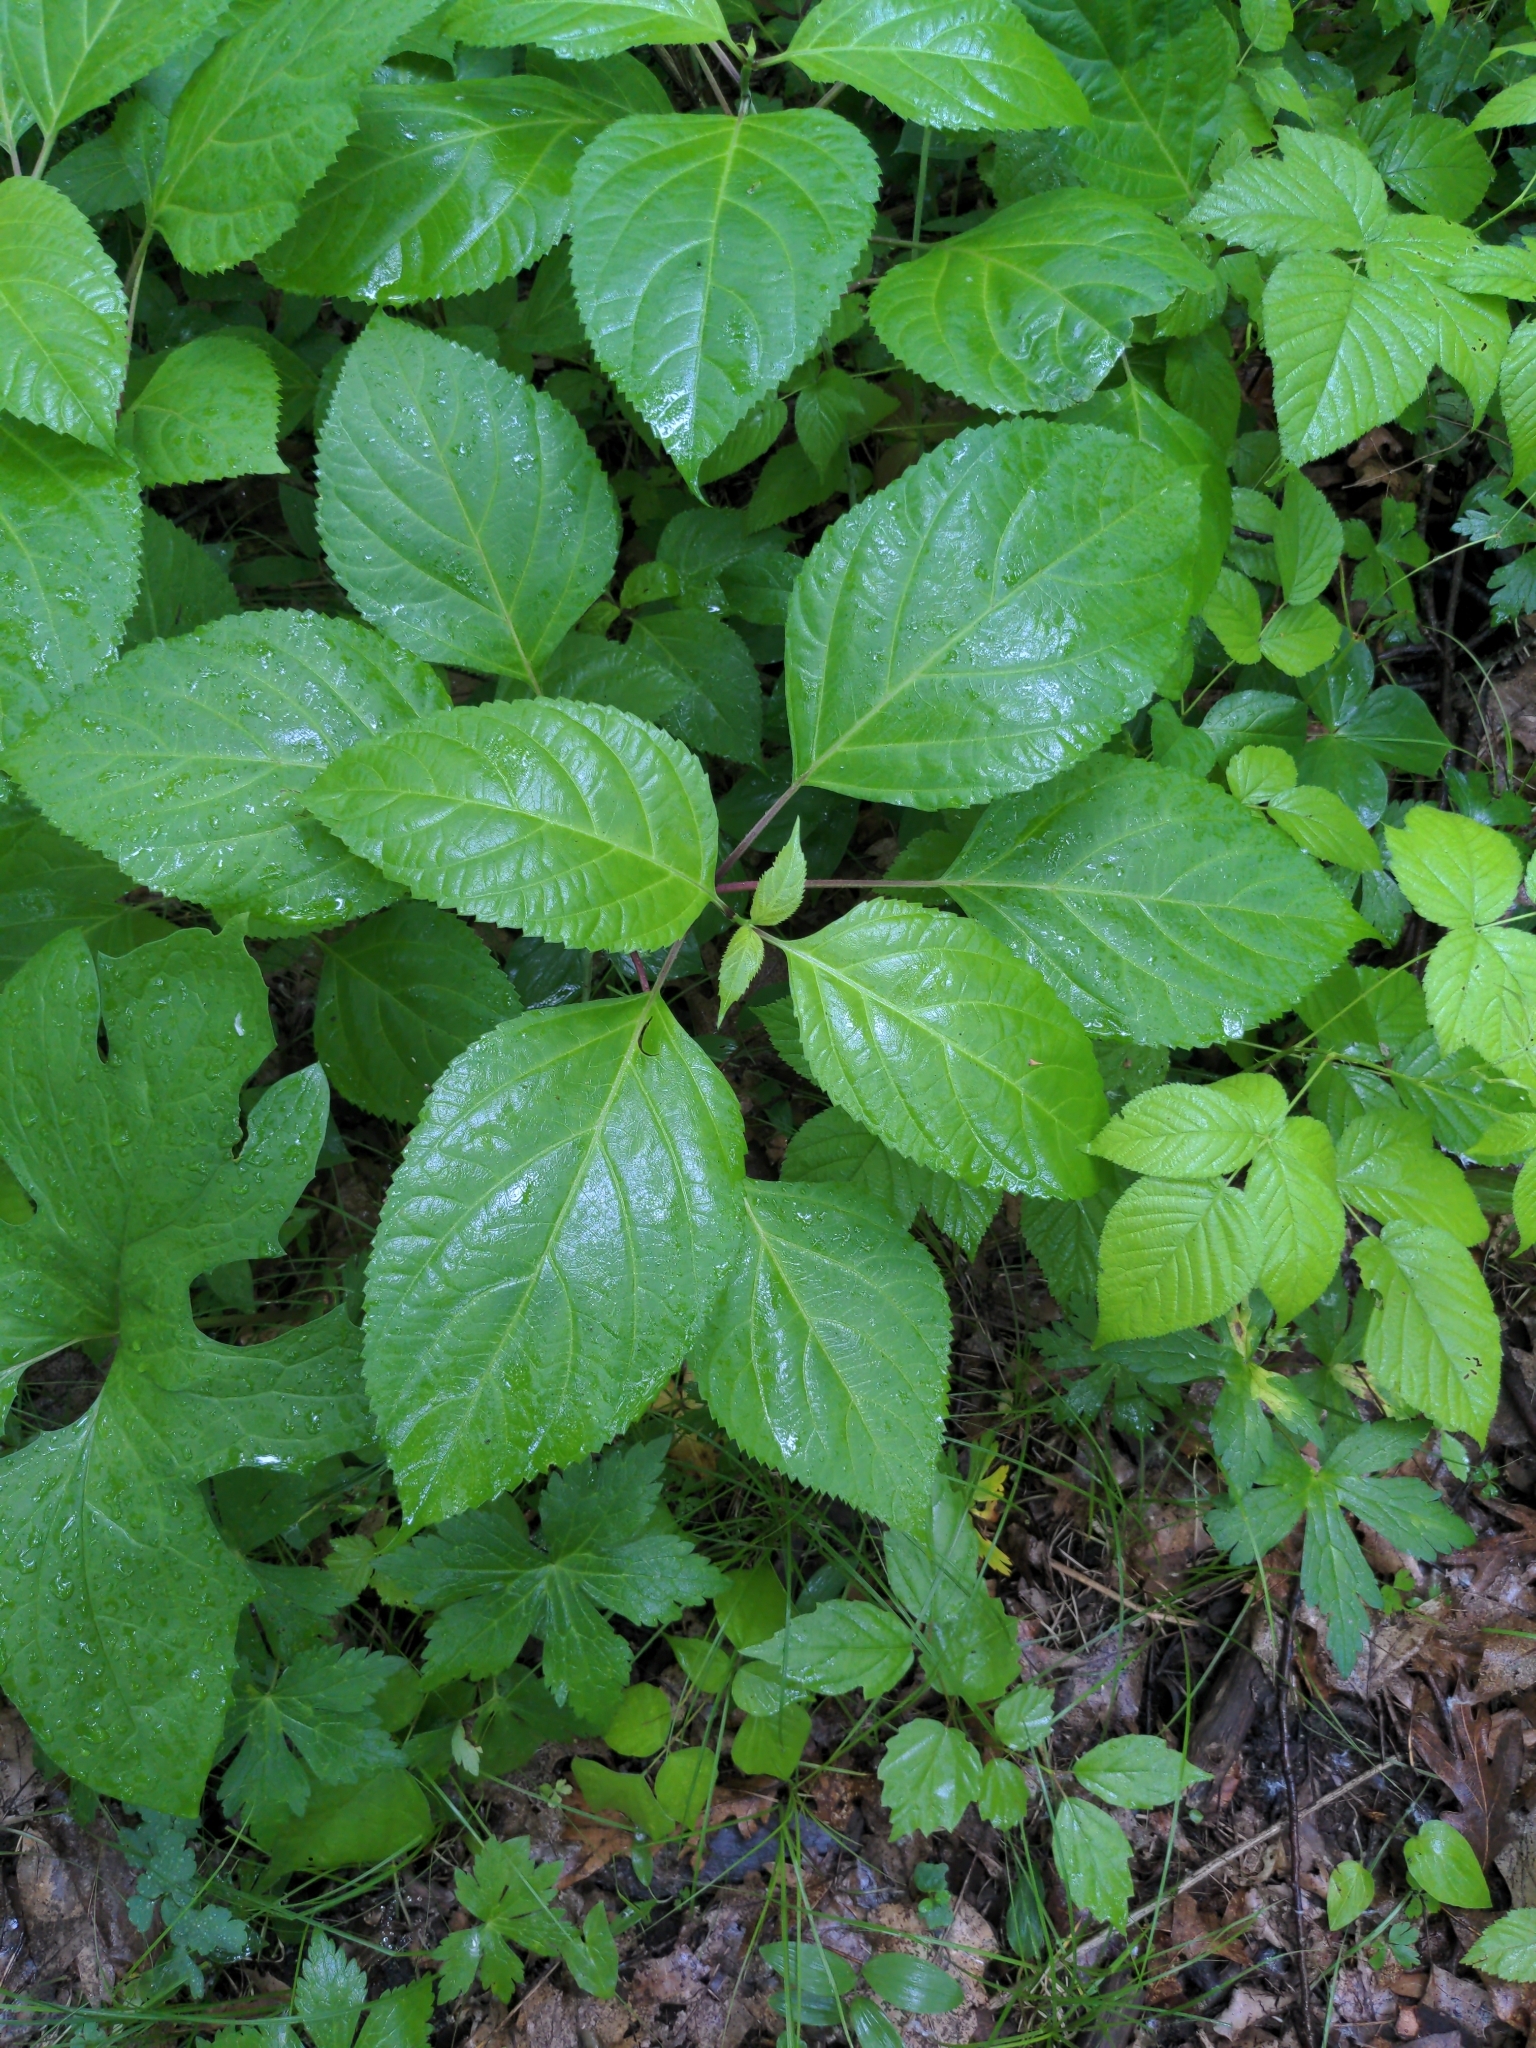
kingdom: Plantae
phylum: Tracheophyta
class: Magnoliopsida
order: Lamiales
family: Lamiaceae
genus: Collinsonia
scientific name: Collinsonia canadensis
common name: Northern horsebalm
